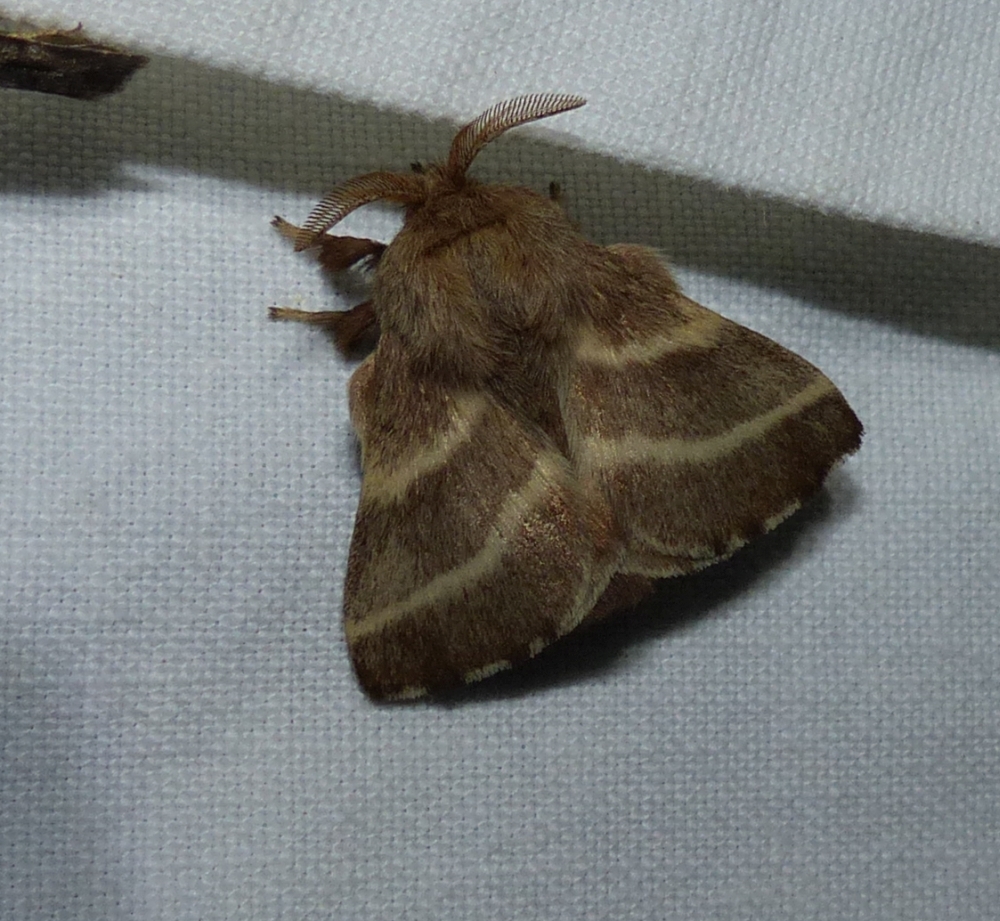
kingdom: Animalia
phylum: Arthropoda
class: Insecta
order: Lepidoptera
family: Lasiocampidae
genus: Malacosoma
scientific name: Malacosoma americana
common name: Eastern tent caterpillar moth
